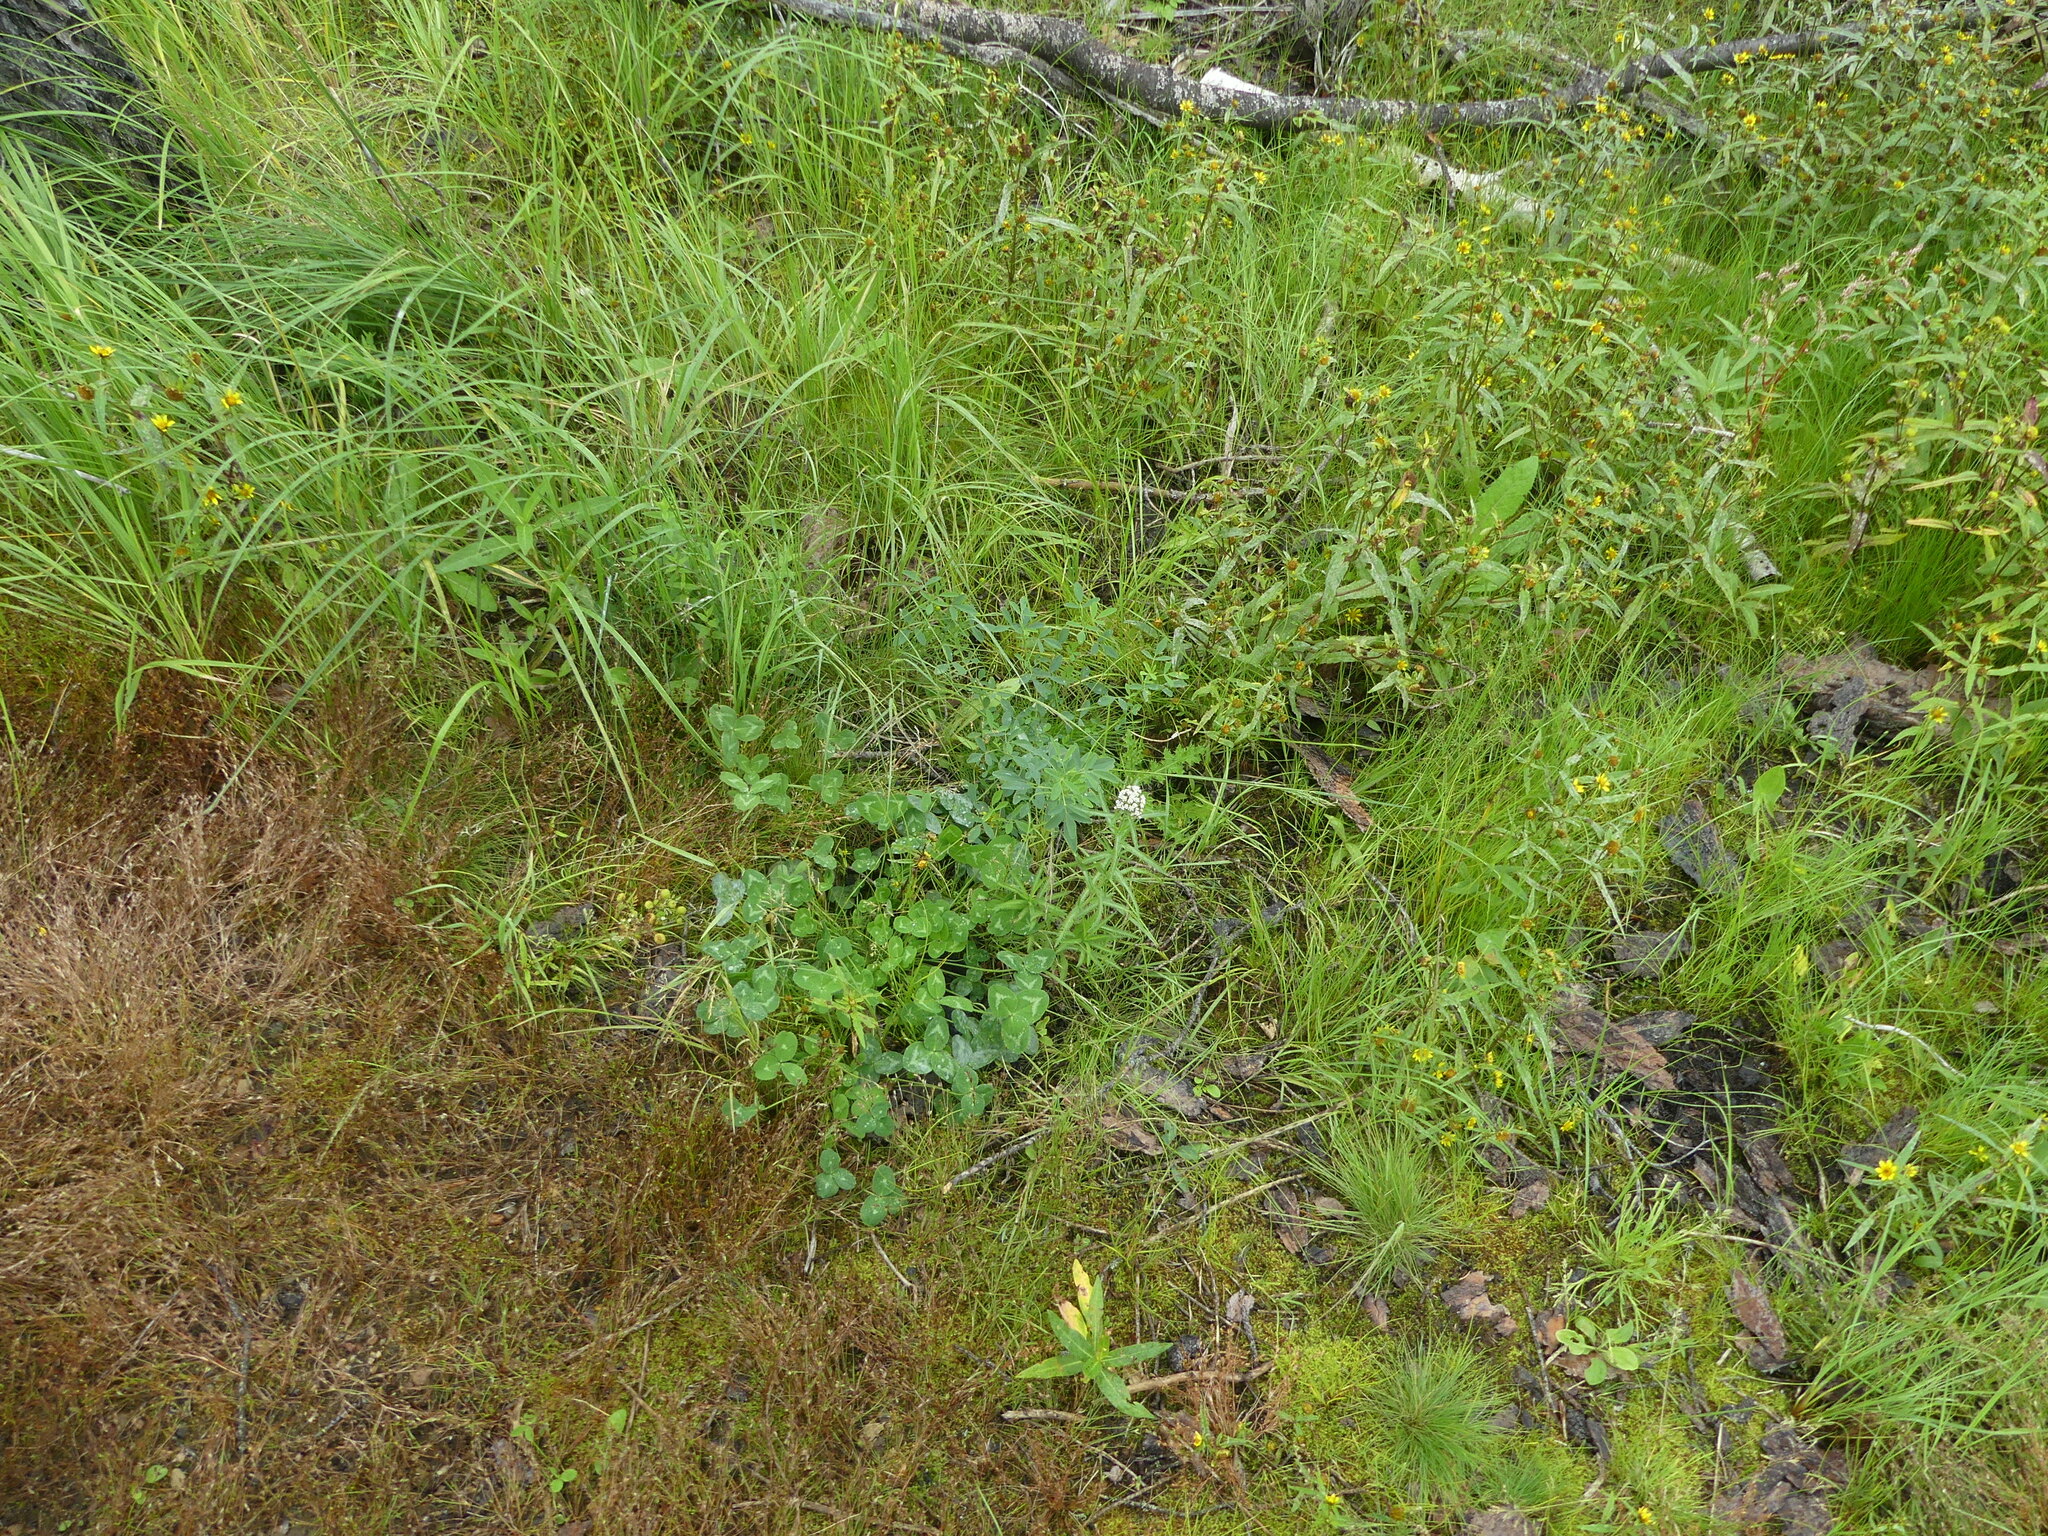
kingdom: Plantae
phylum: Tracheophyta
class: Magnoliopsida
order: Asterales
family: Asteraceae
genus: Achillea
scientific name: Achillea alpina
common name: Siberian yarrow
